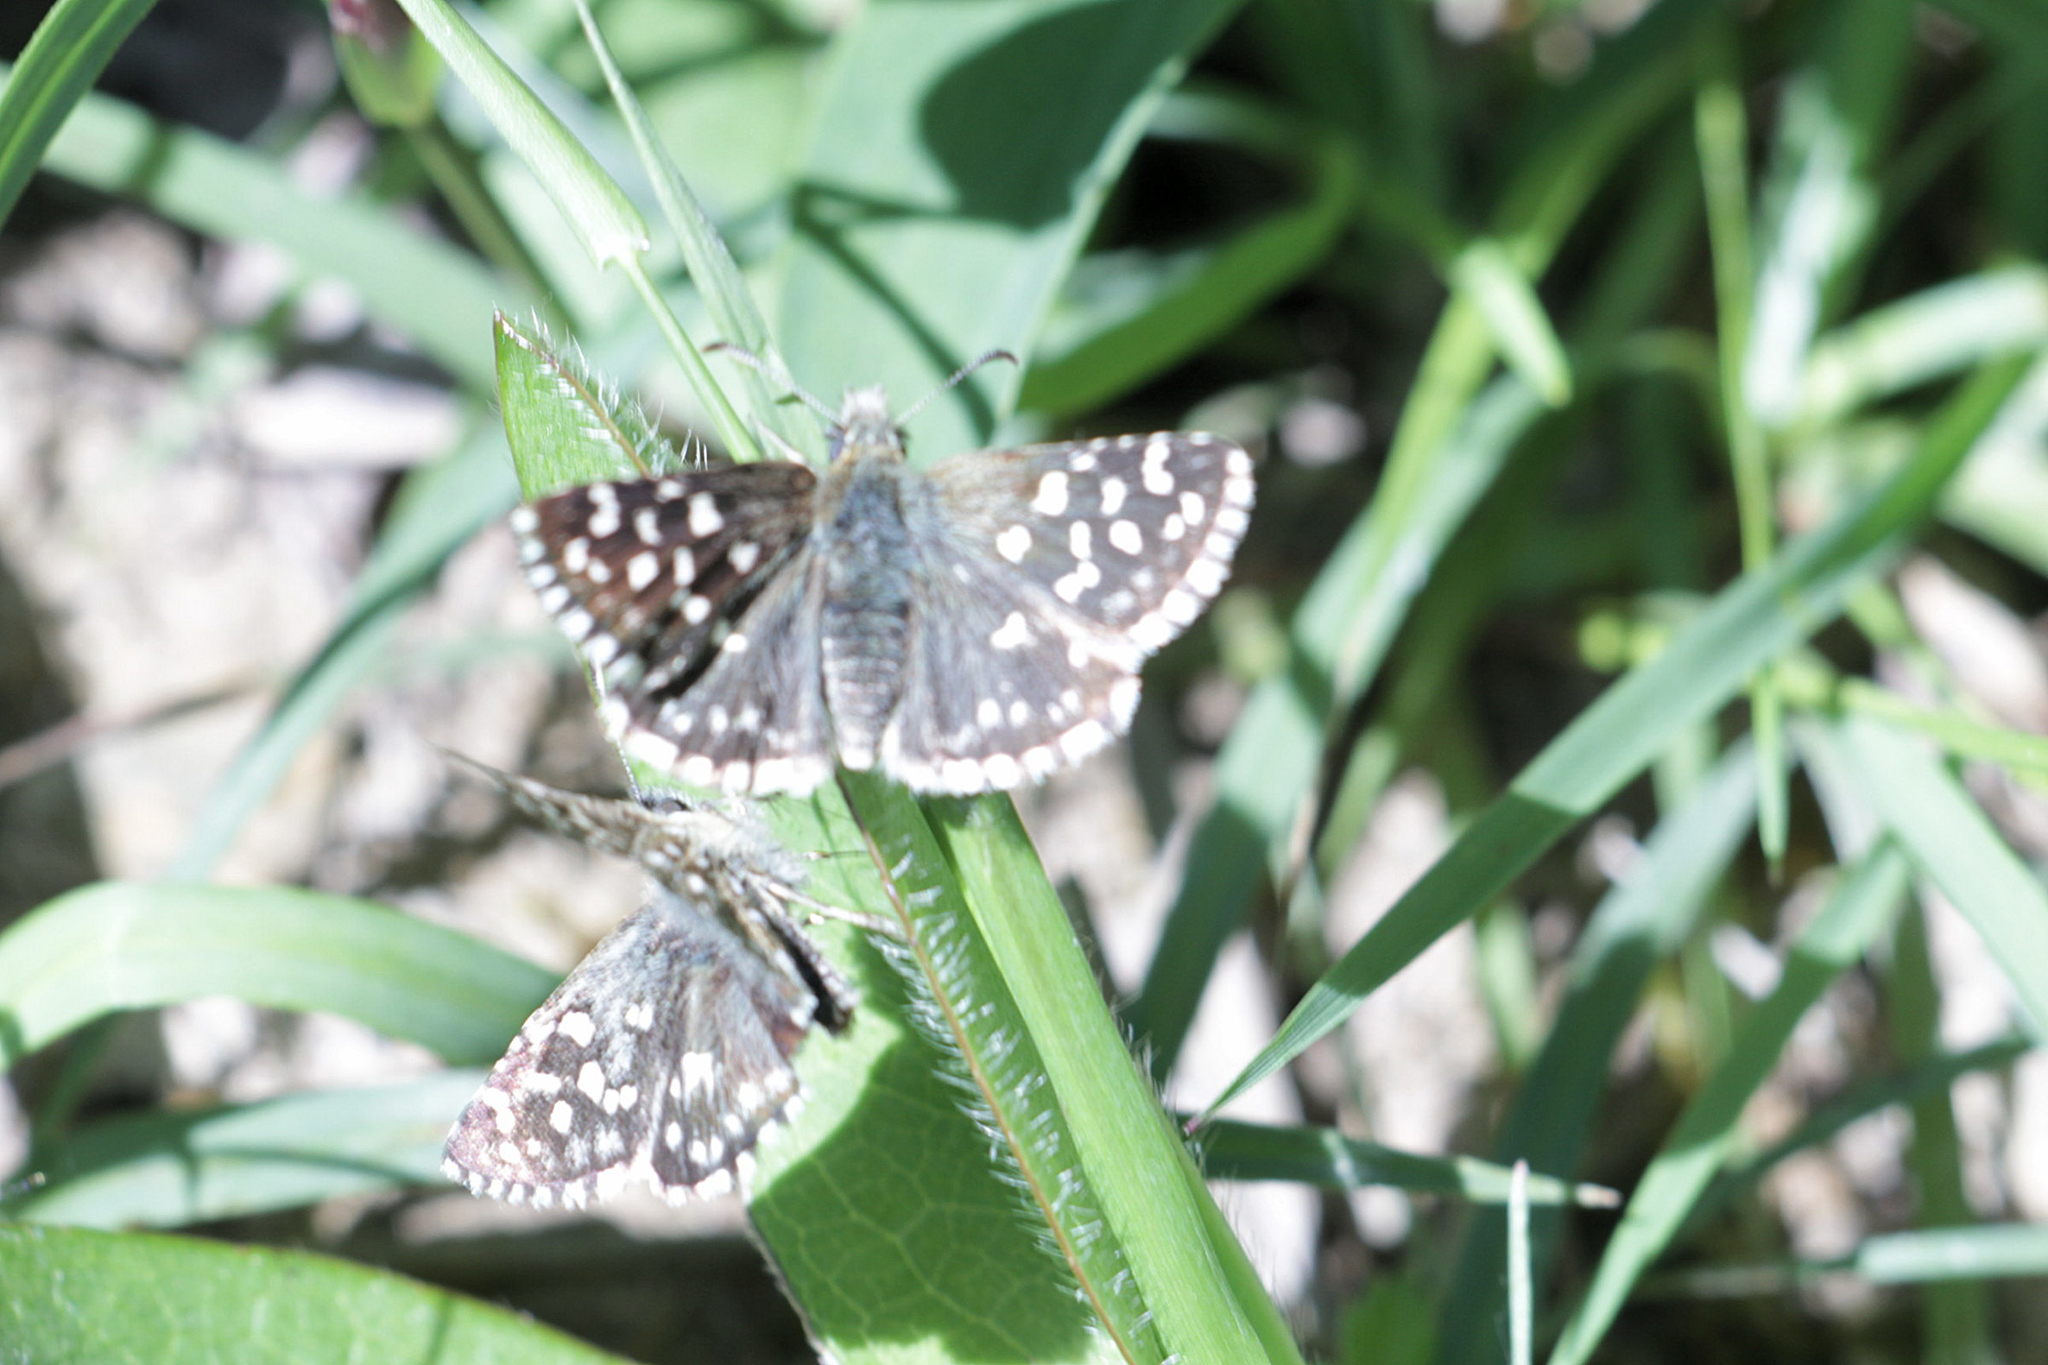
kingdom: Animalia
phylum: Arthropoda
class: Insecta
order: Lepidoptera
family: Hesperiidae
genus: Pyrgus
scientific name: Pyrgus malvae
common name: Grizzled skipper
